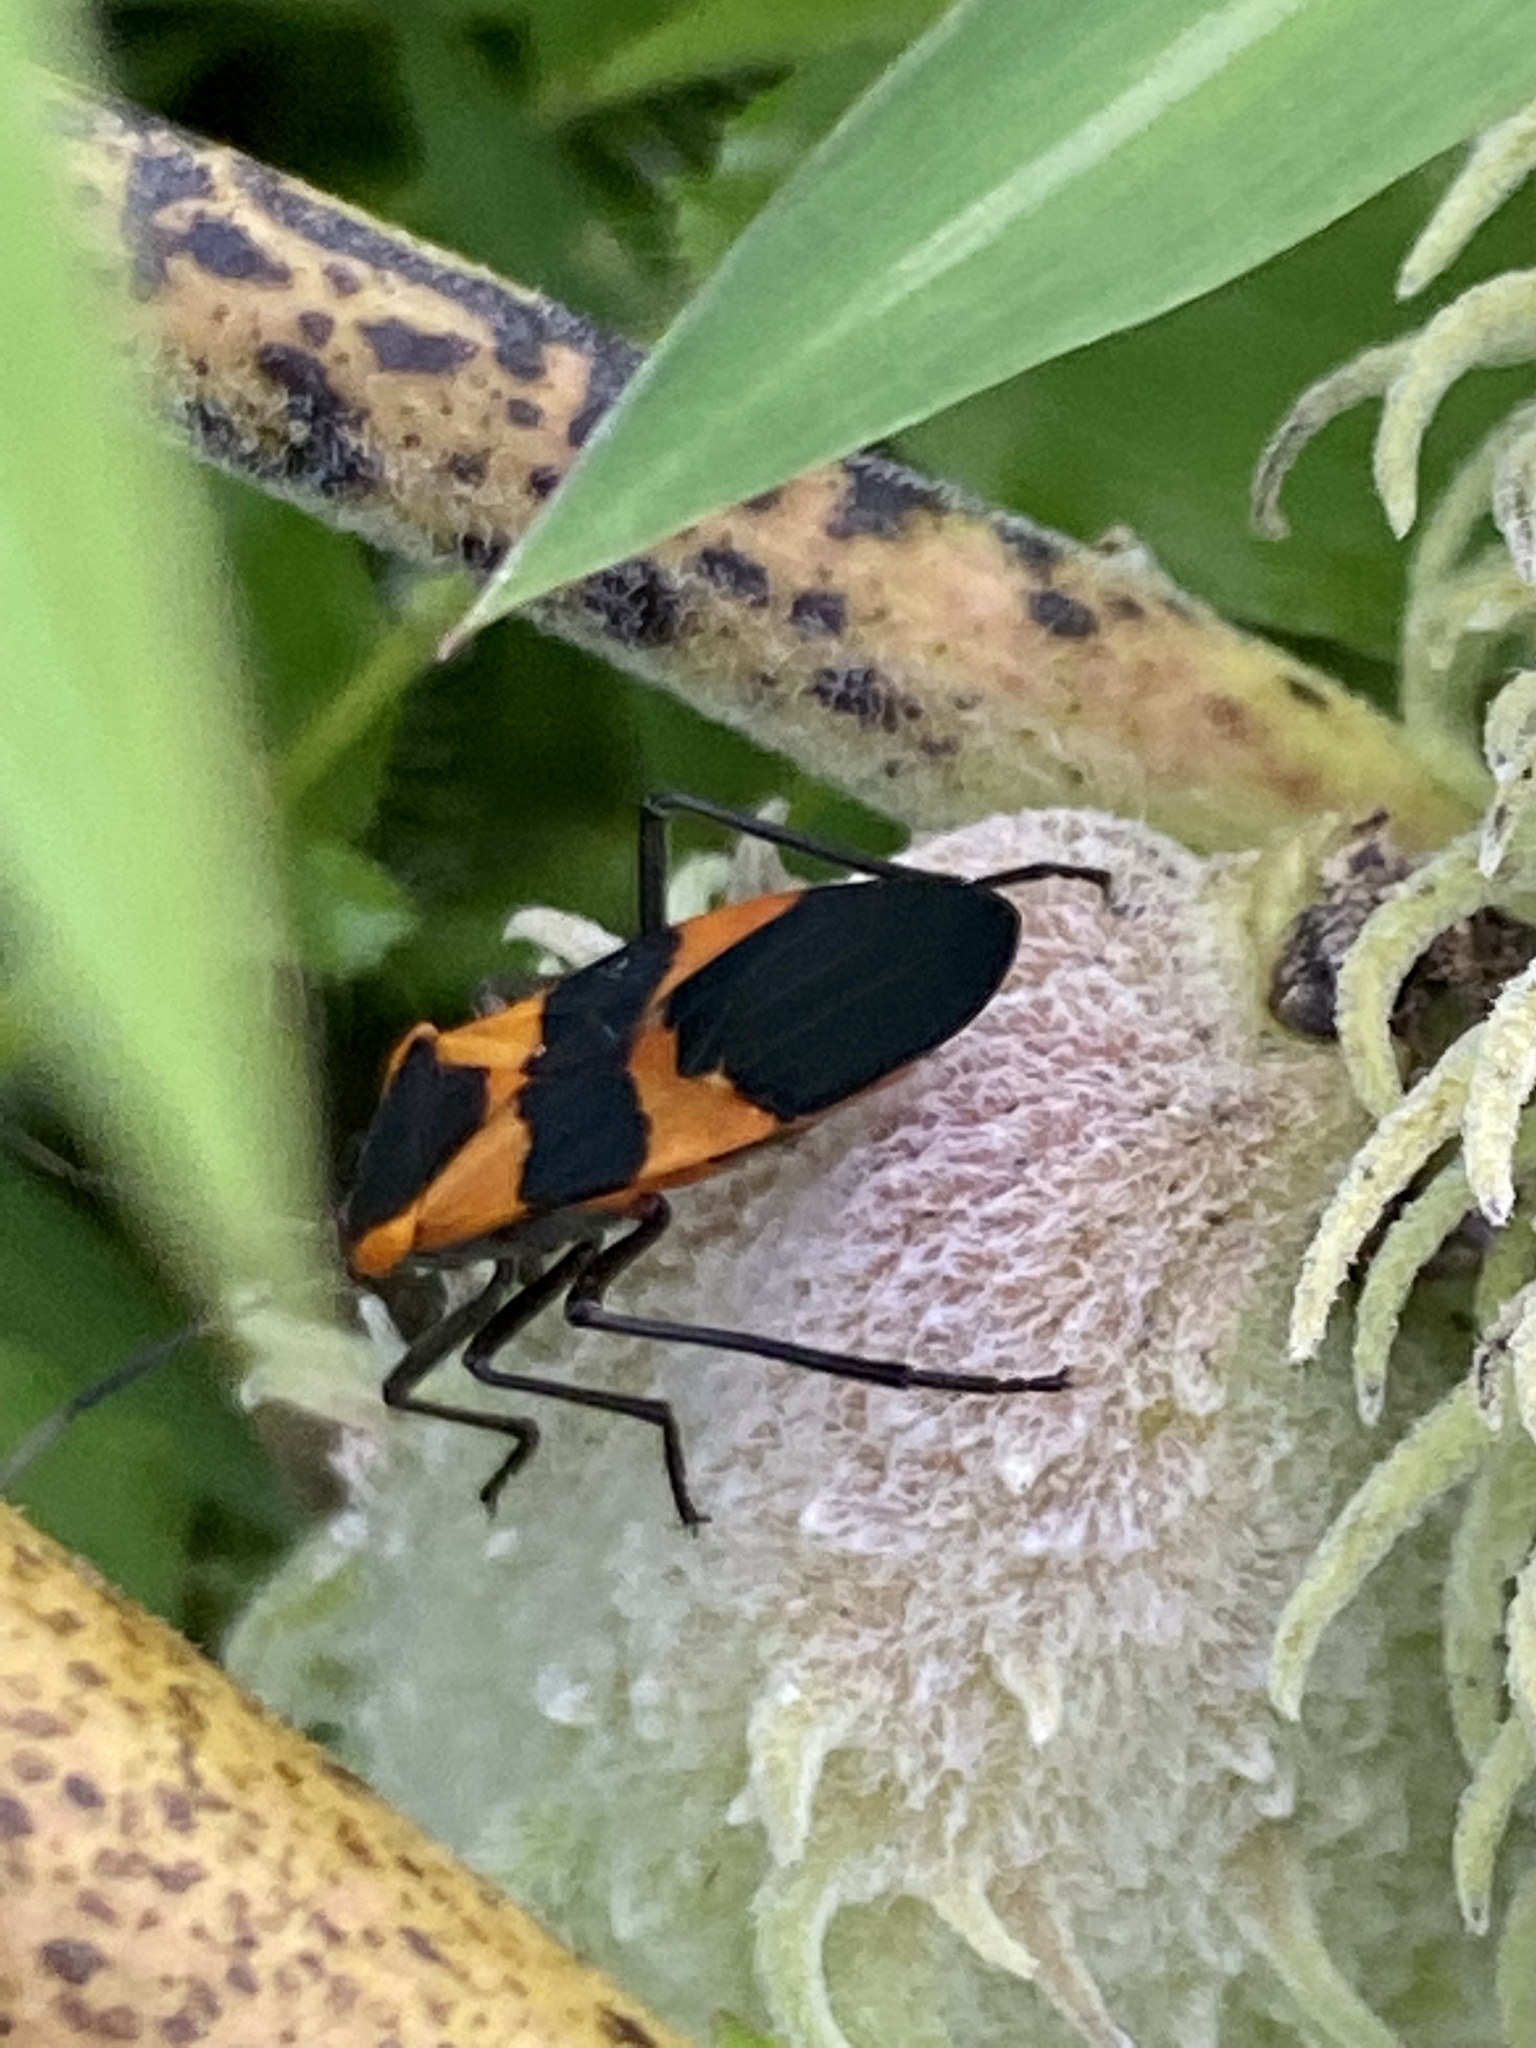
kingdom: Animalia
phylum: Arthropoda
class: Insecta
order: Hemiptera
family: Lygaeidae
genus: Oncopeltus
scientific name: Oncopeltus fasciatus
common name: Large milkweed bug
